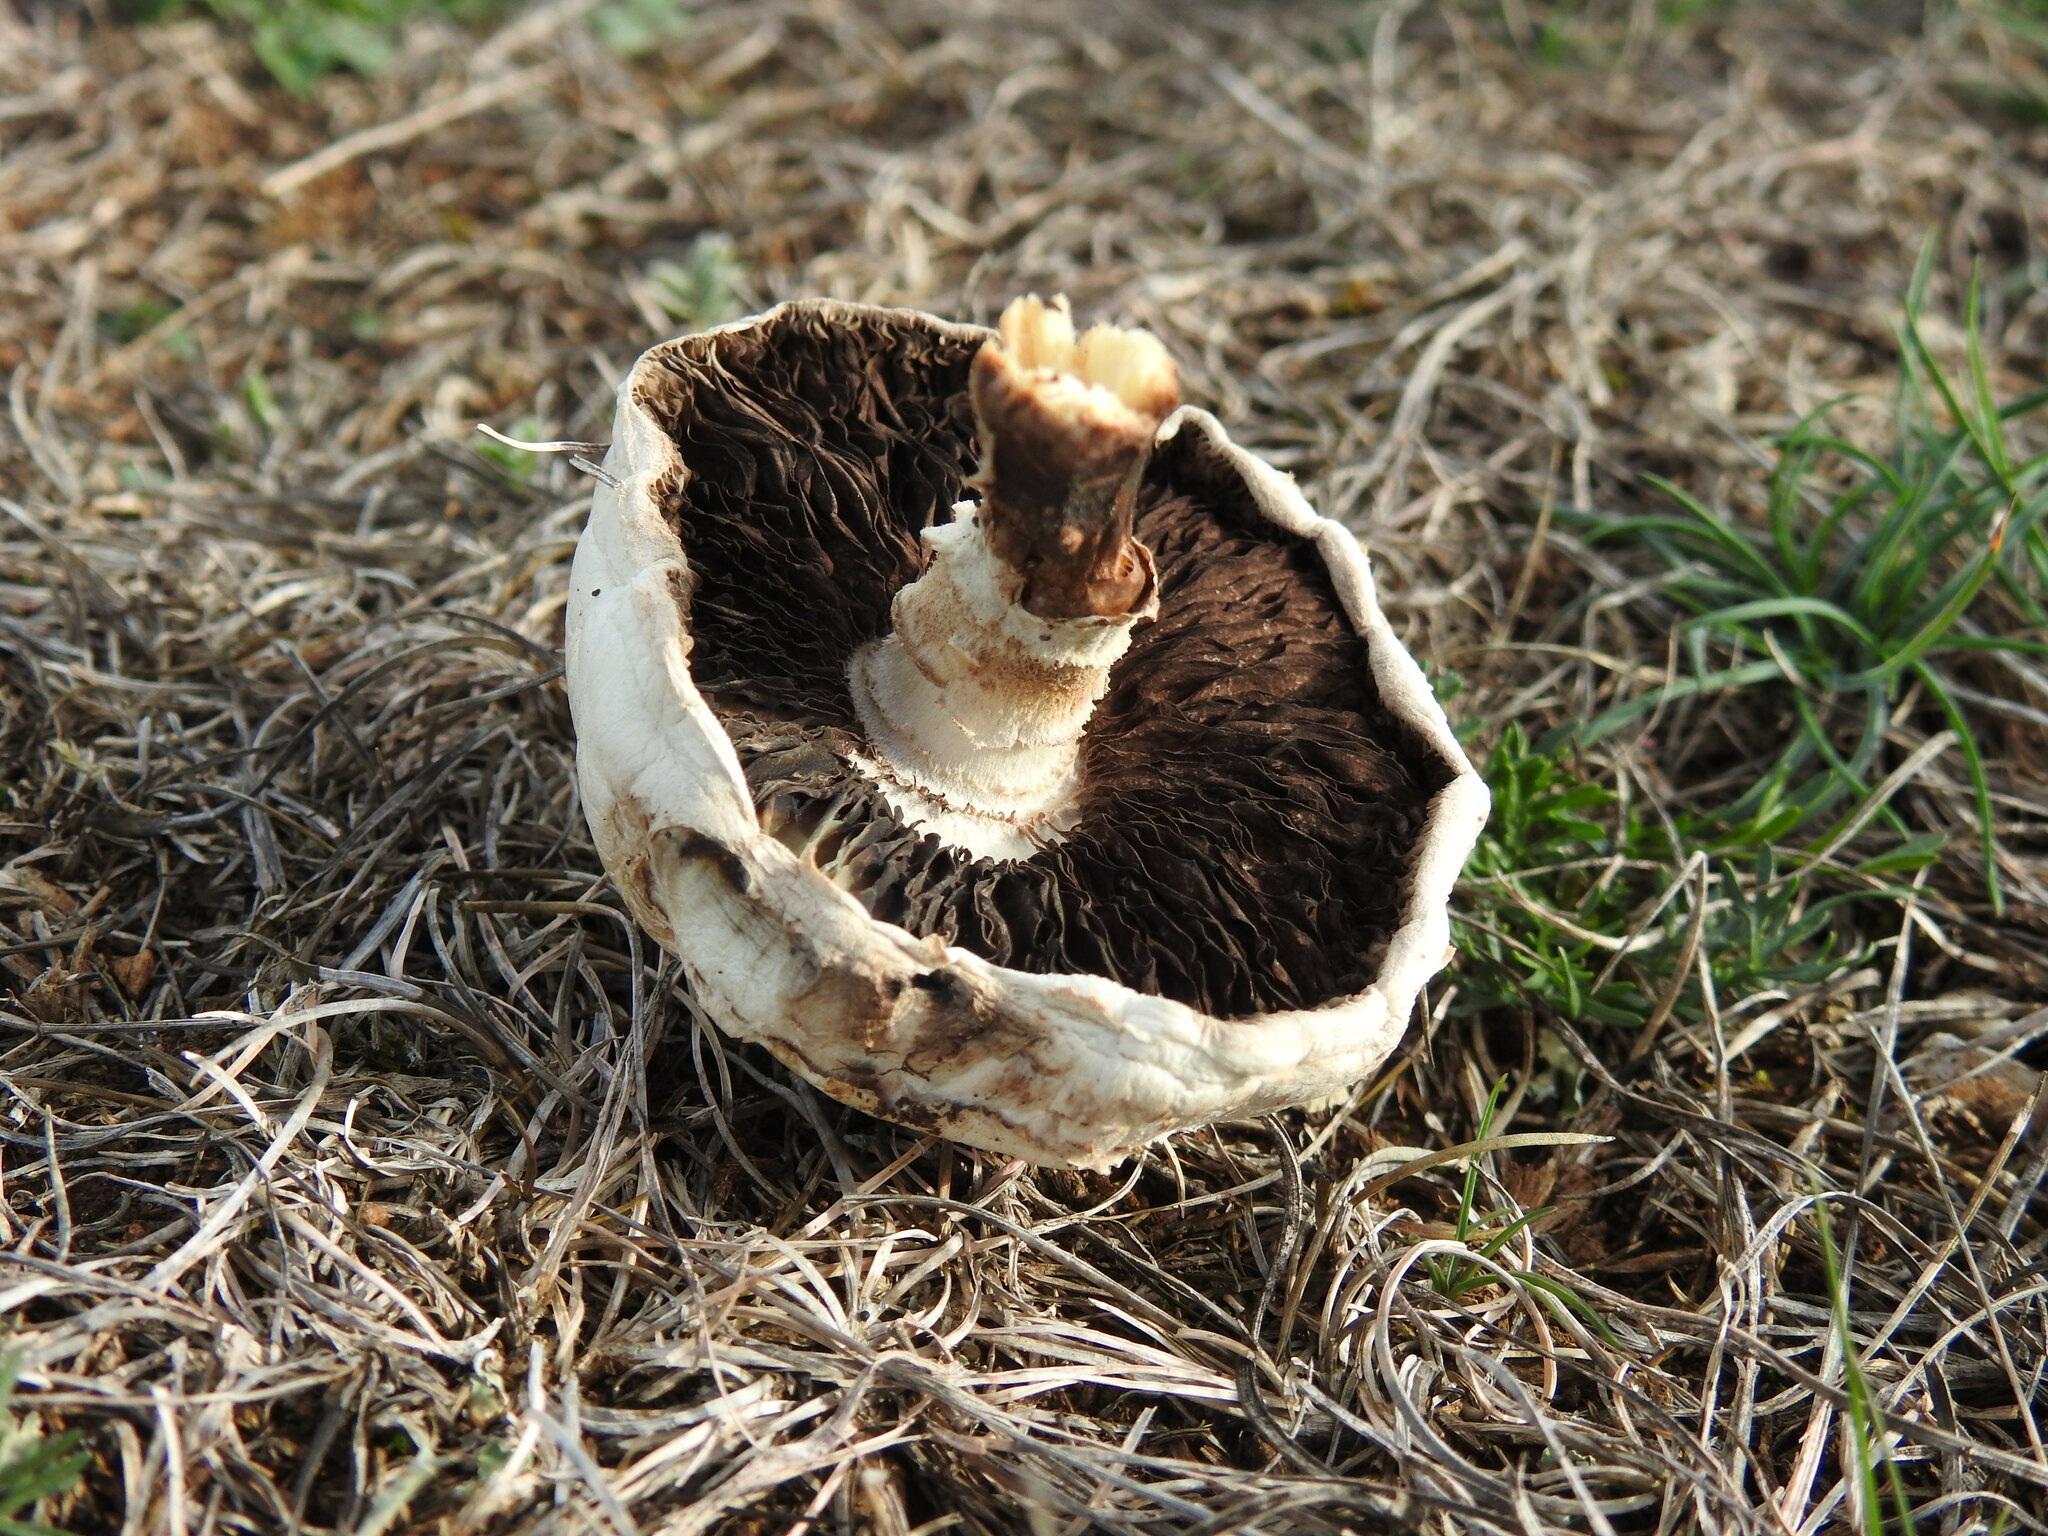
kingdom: Fungi
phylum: Basidiomycota
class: Agaricomycetes
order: Agaricales
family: Agaricaceae
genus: Agaricus
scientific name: Agaricus arvensis
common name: Horse mushroom
